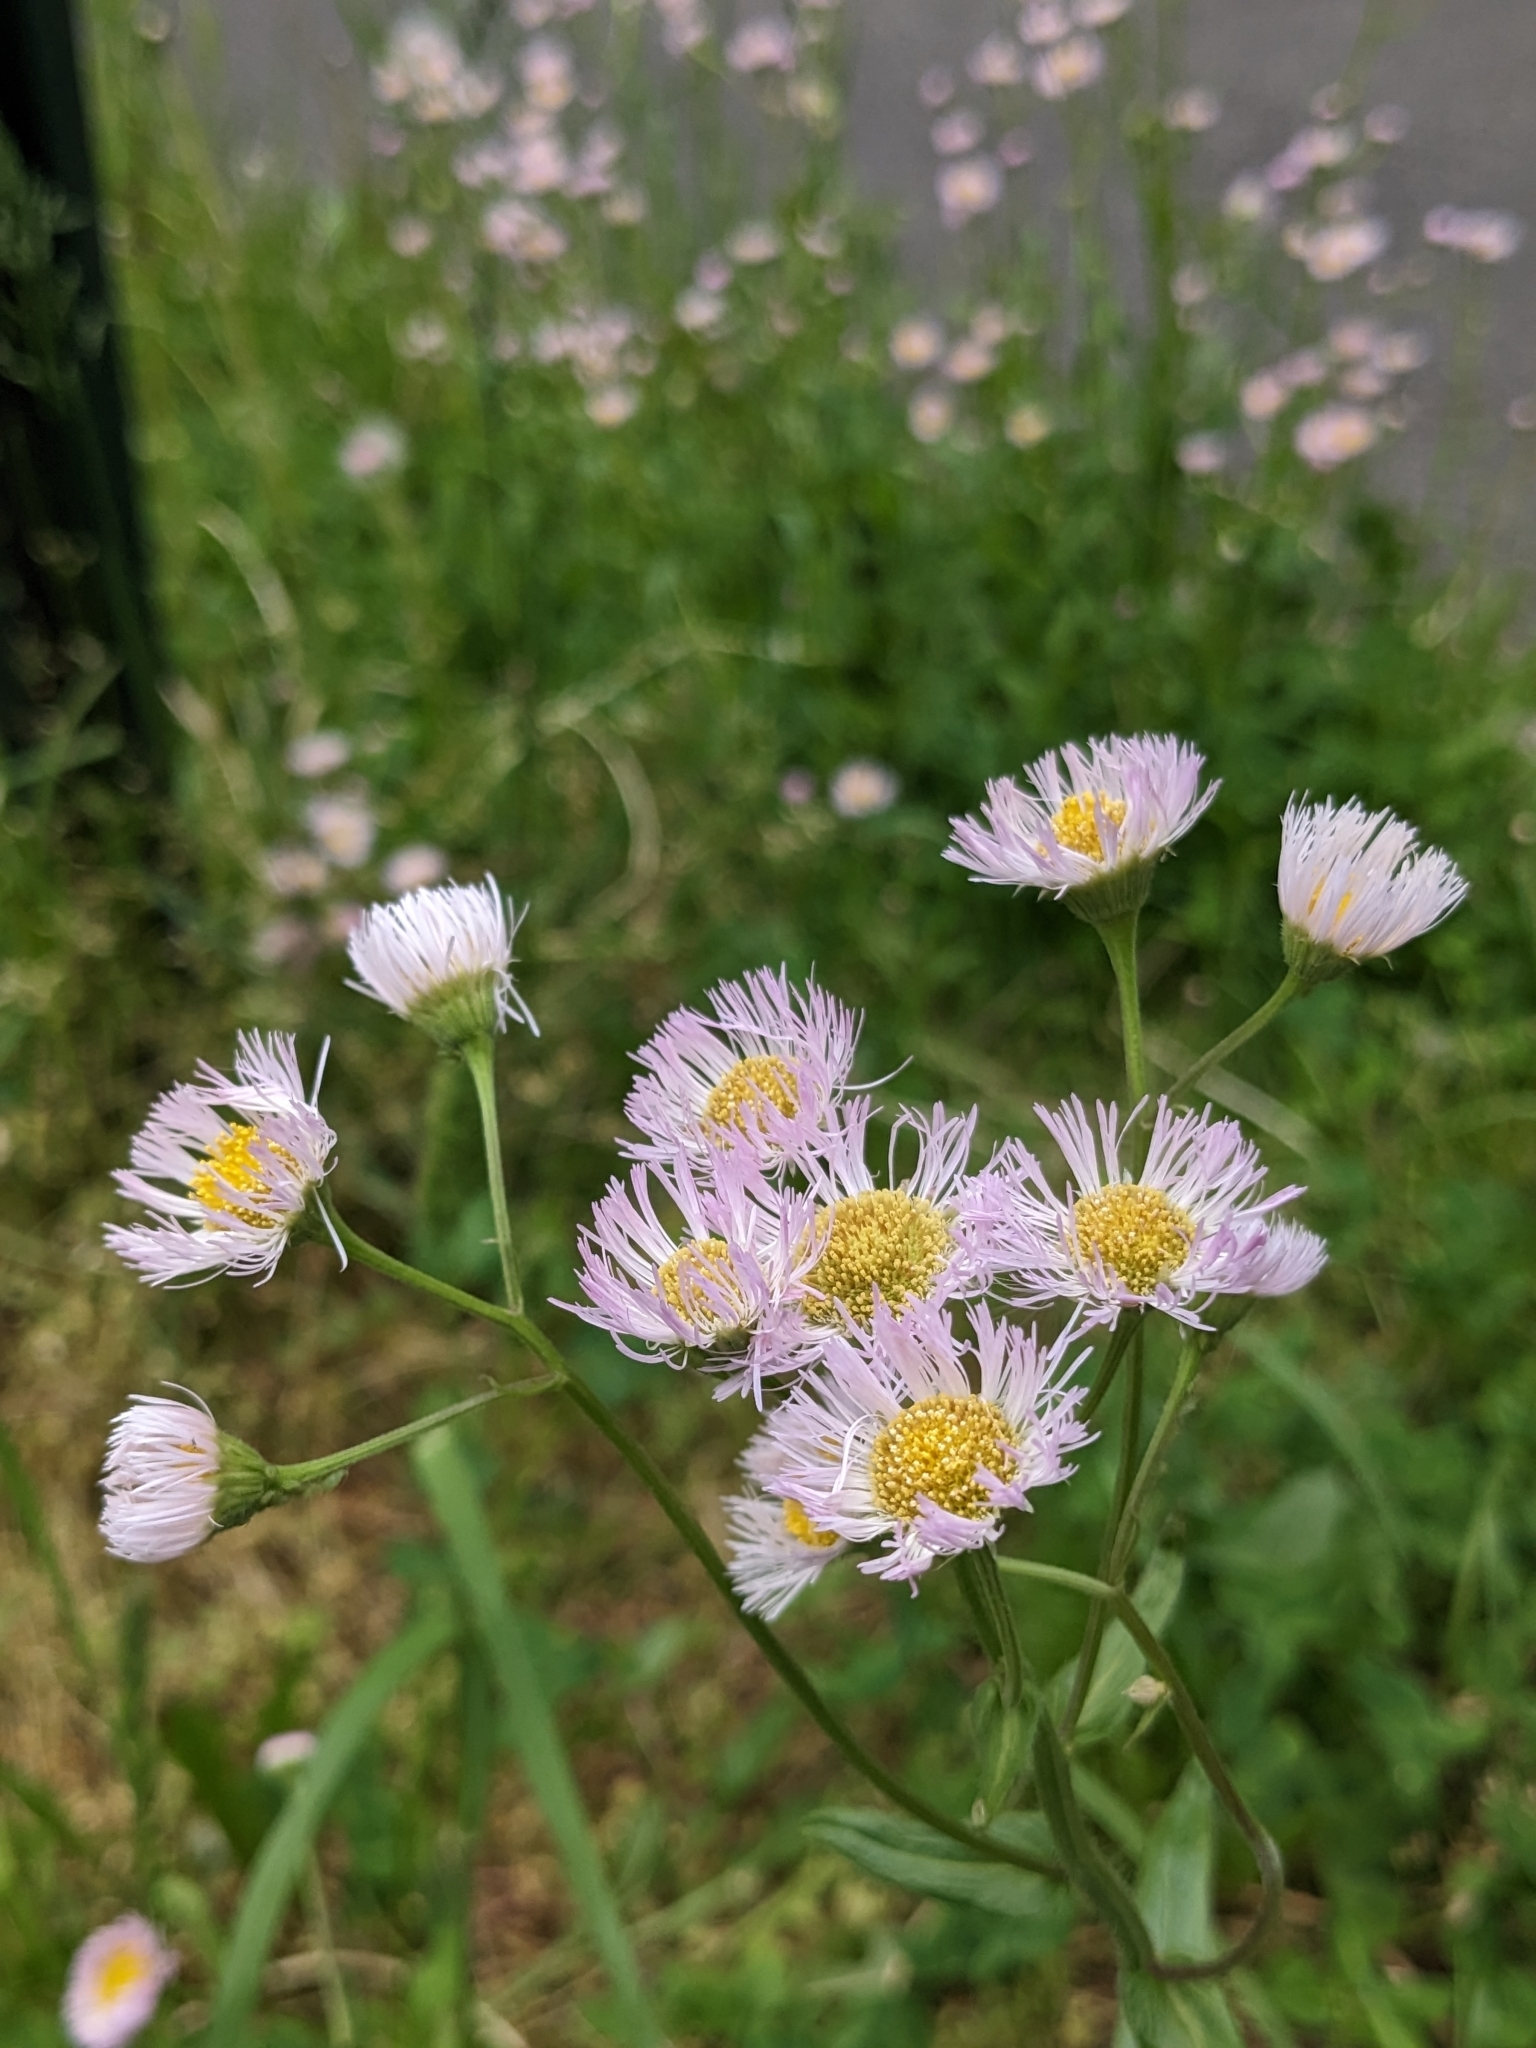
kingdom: Plantae
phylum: Tracheophyta
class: Magnoliopsida
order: Asterales
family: Asteraceae
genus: Erigeron
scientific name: Erigeron philadelphicus
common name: Robin's-plantain
